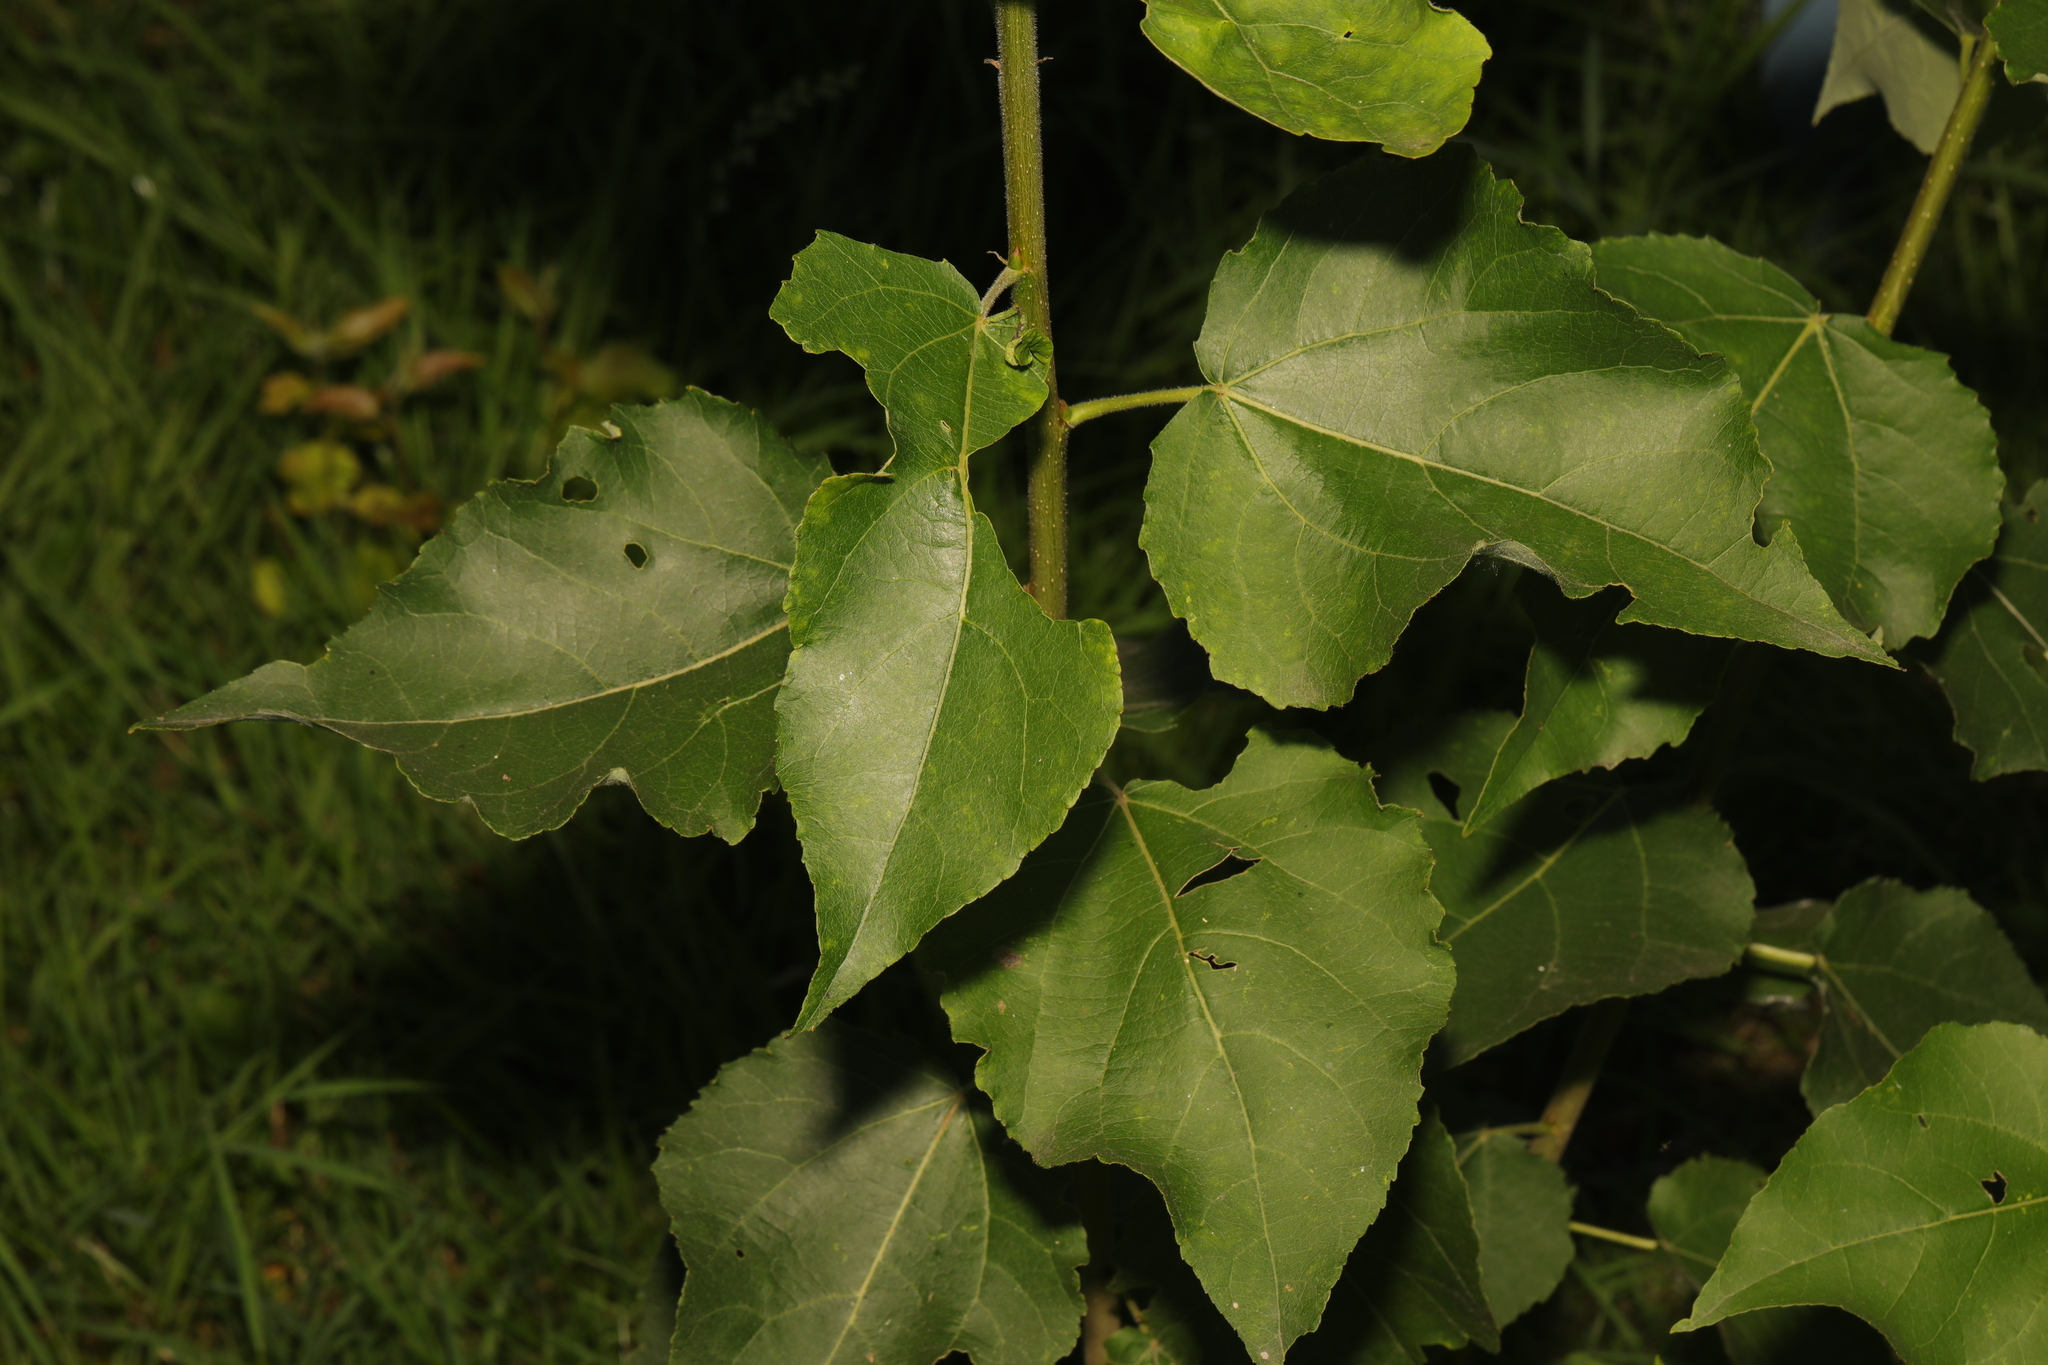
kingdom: Plantae
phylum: Tracheophyta
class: Magnoliopsida
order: Malpighiales
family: Salicaceae
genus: Populus
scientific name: Populus tremula
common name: European aspen
